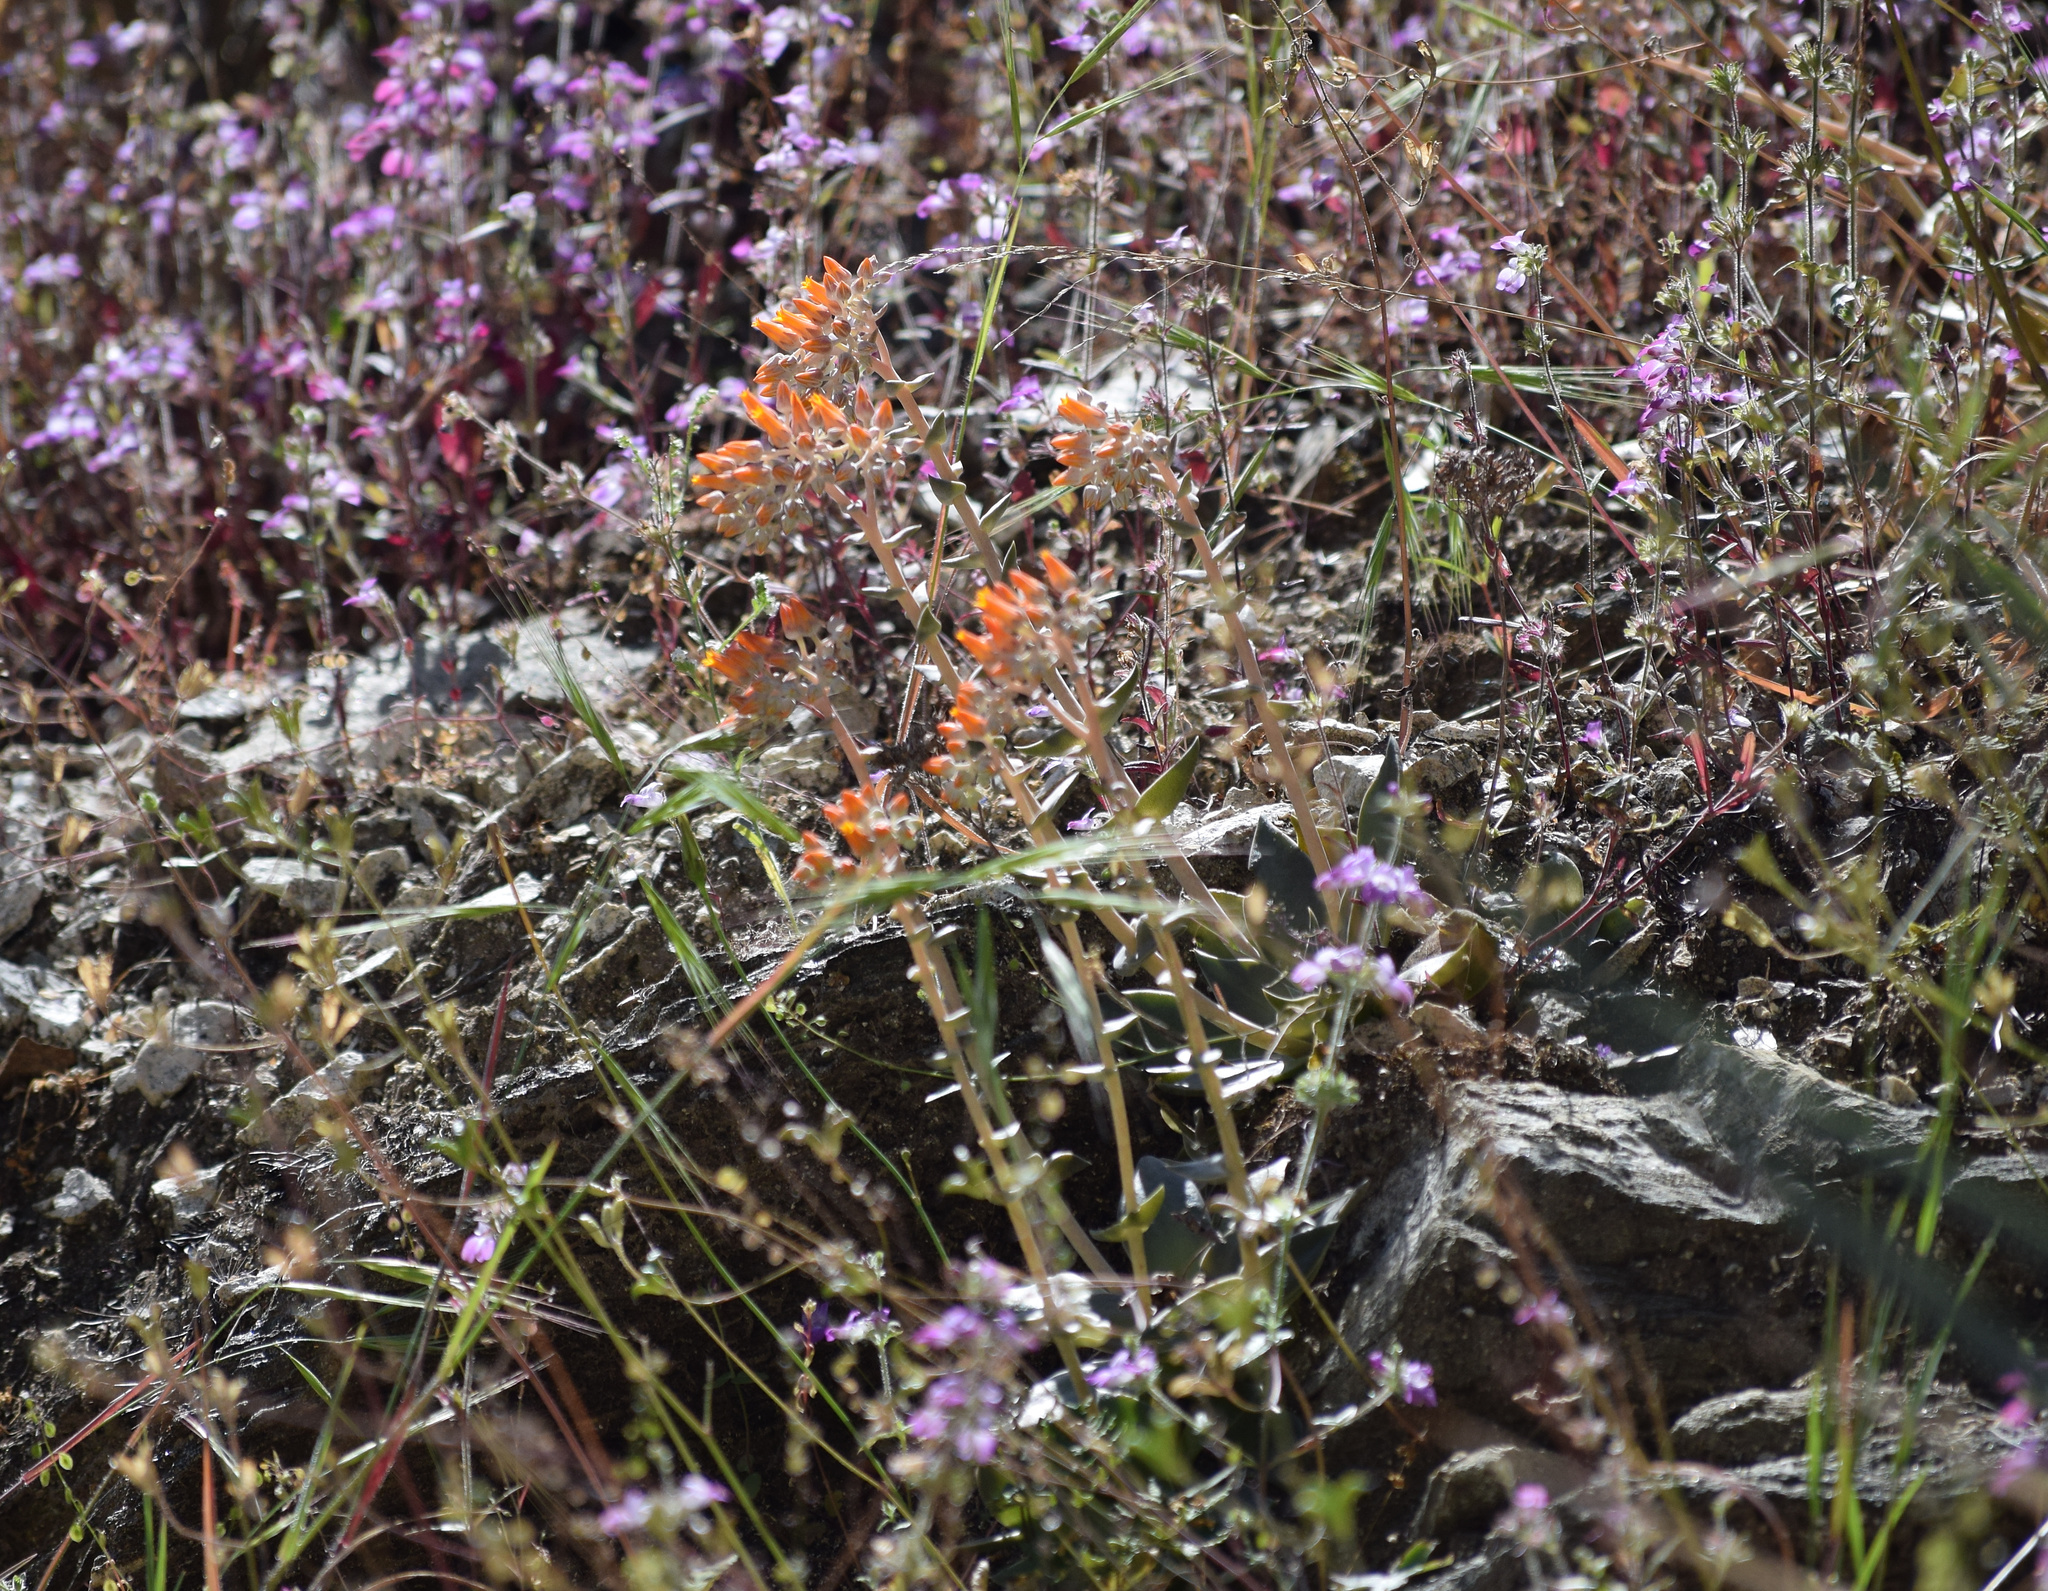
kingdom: Plantae
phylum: Tracheophyta
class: Magnoliopsida
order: Saxifragales
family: Crassulaceae
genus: Dudleya
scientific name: Dudleya cymosa
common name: Canyon dudleya
